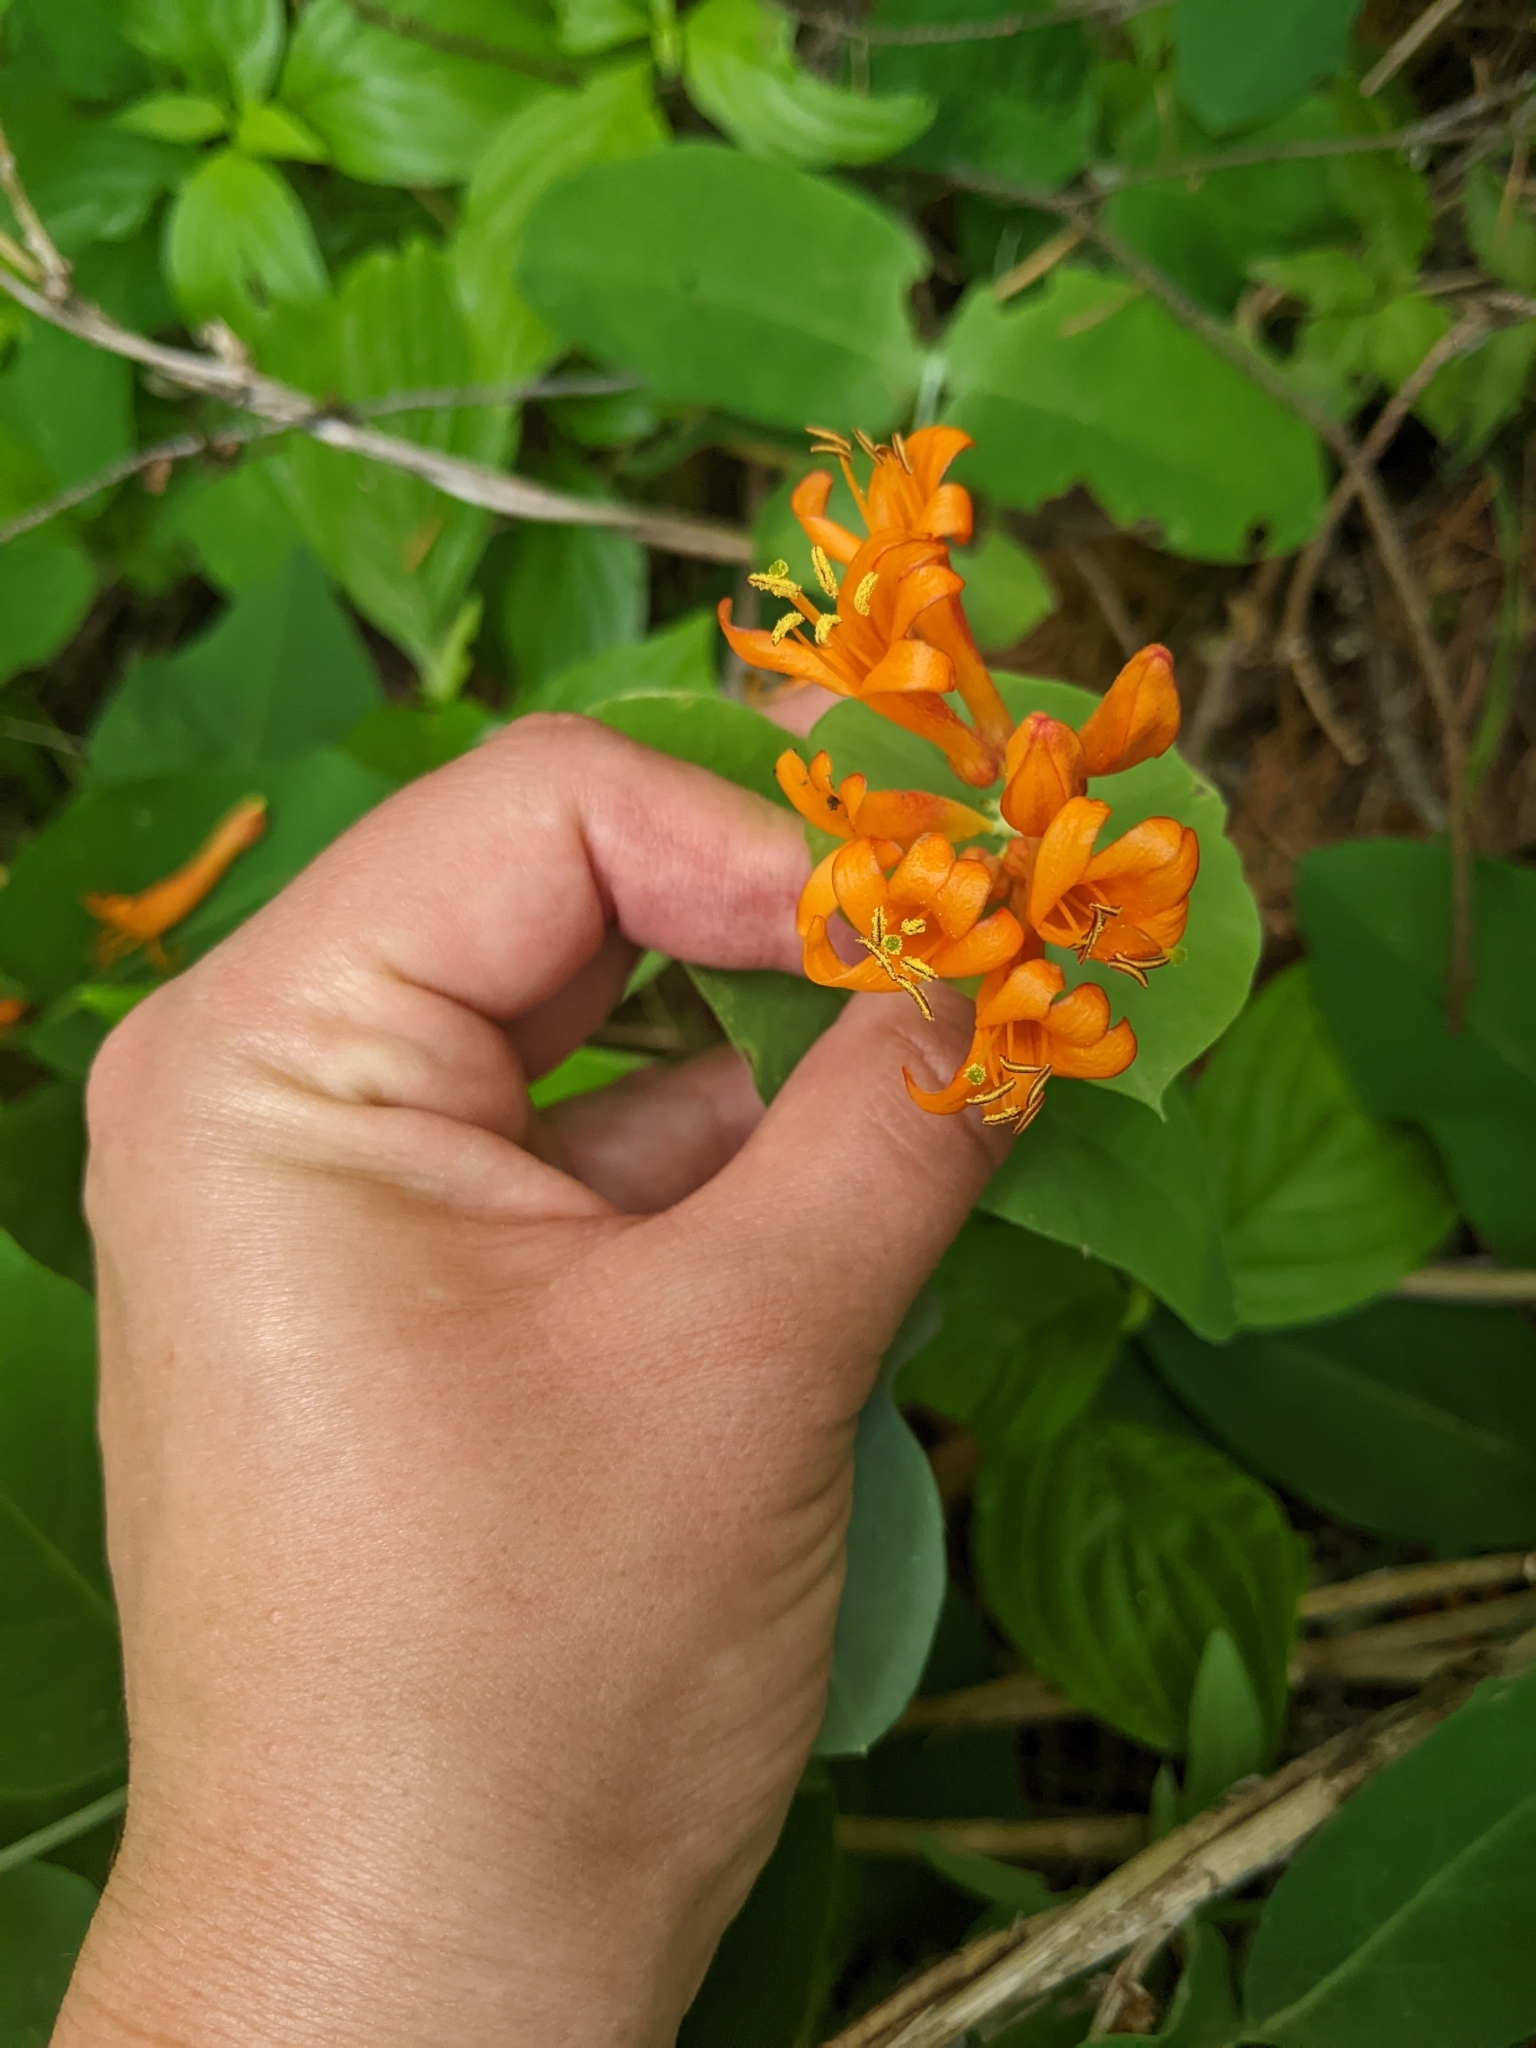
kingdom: Plantae
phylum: Tracheophyta
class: Magnoliopsida
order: Dipsacales
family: Caprifoliaceae
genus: Lonicera
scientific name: Lonicera ciliosa
